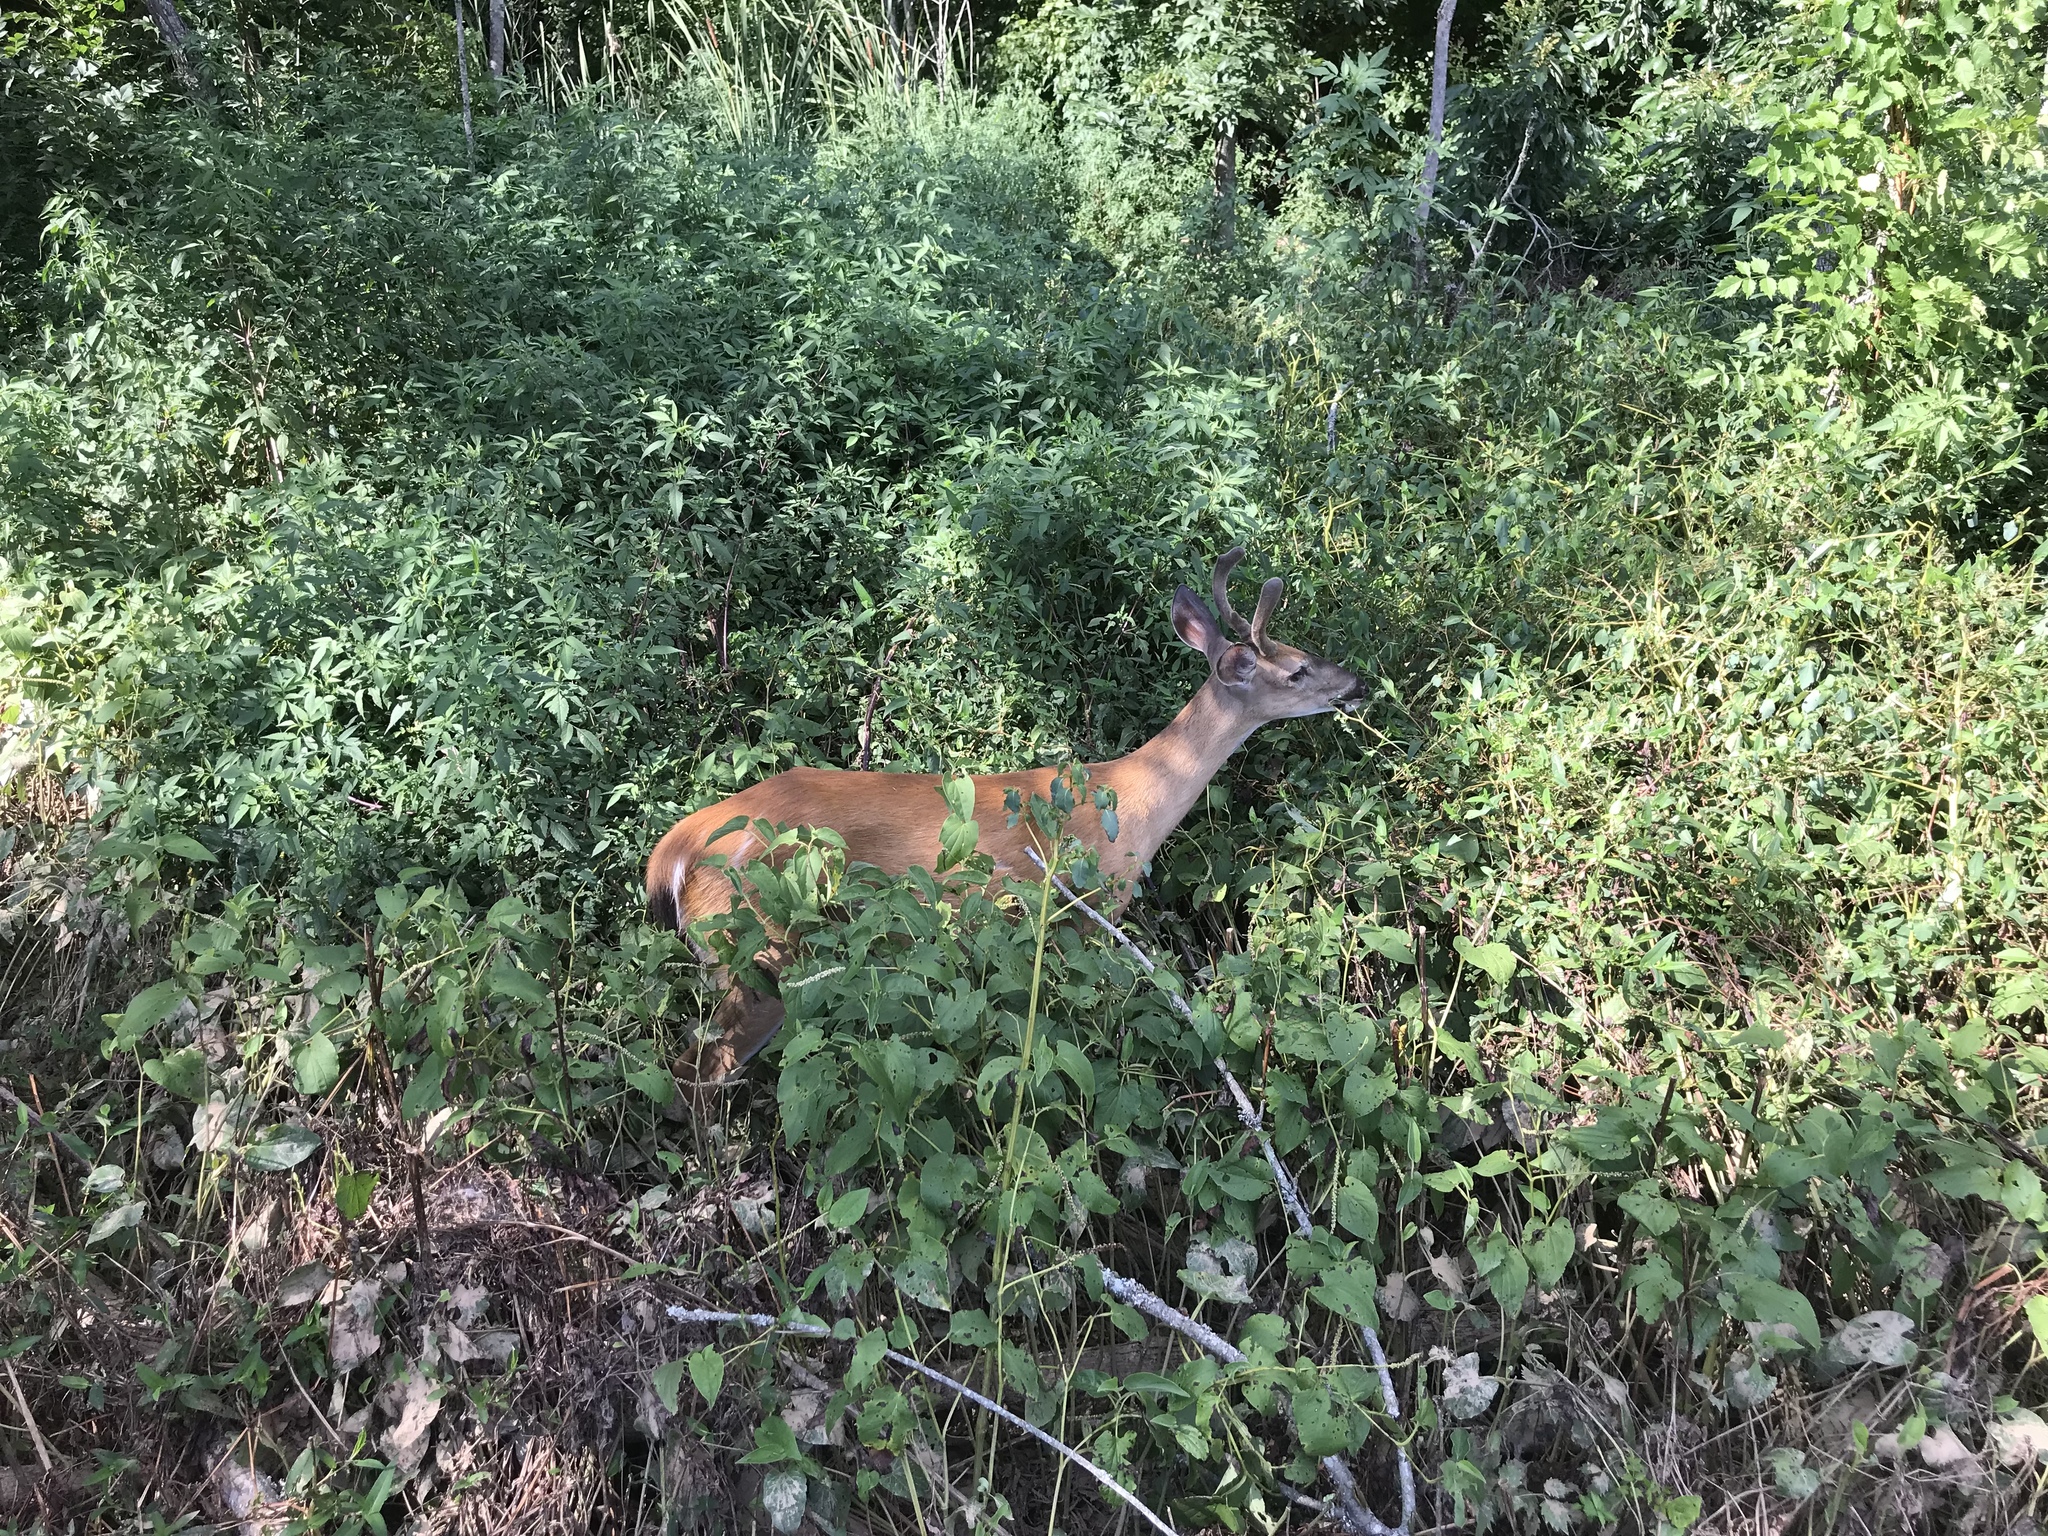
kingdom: Animalia
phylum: Chordata
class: Mammalia
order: Artiodactyla
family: Cervidae
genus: Odocoileus
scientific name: Odocoileus virginianus
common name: White-tailed deer
